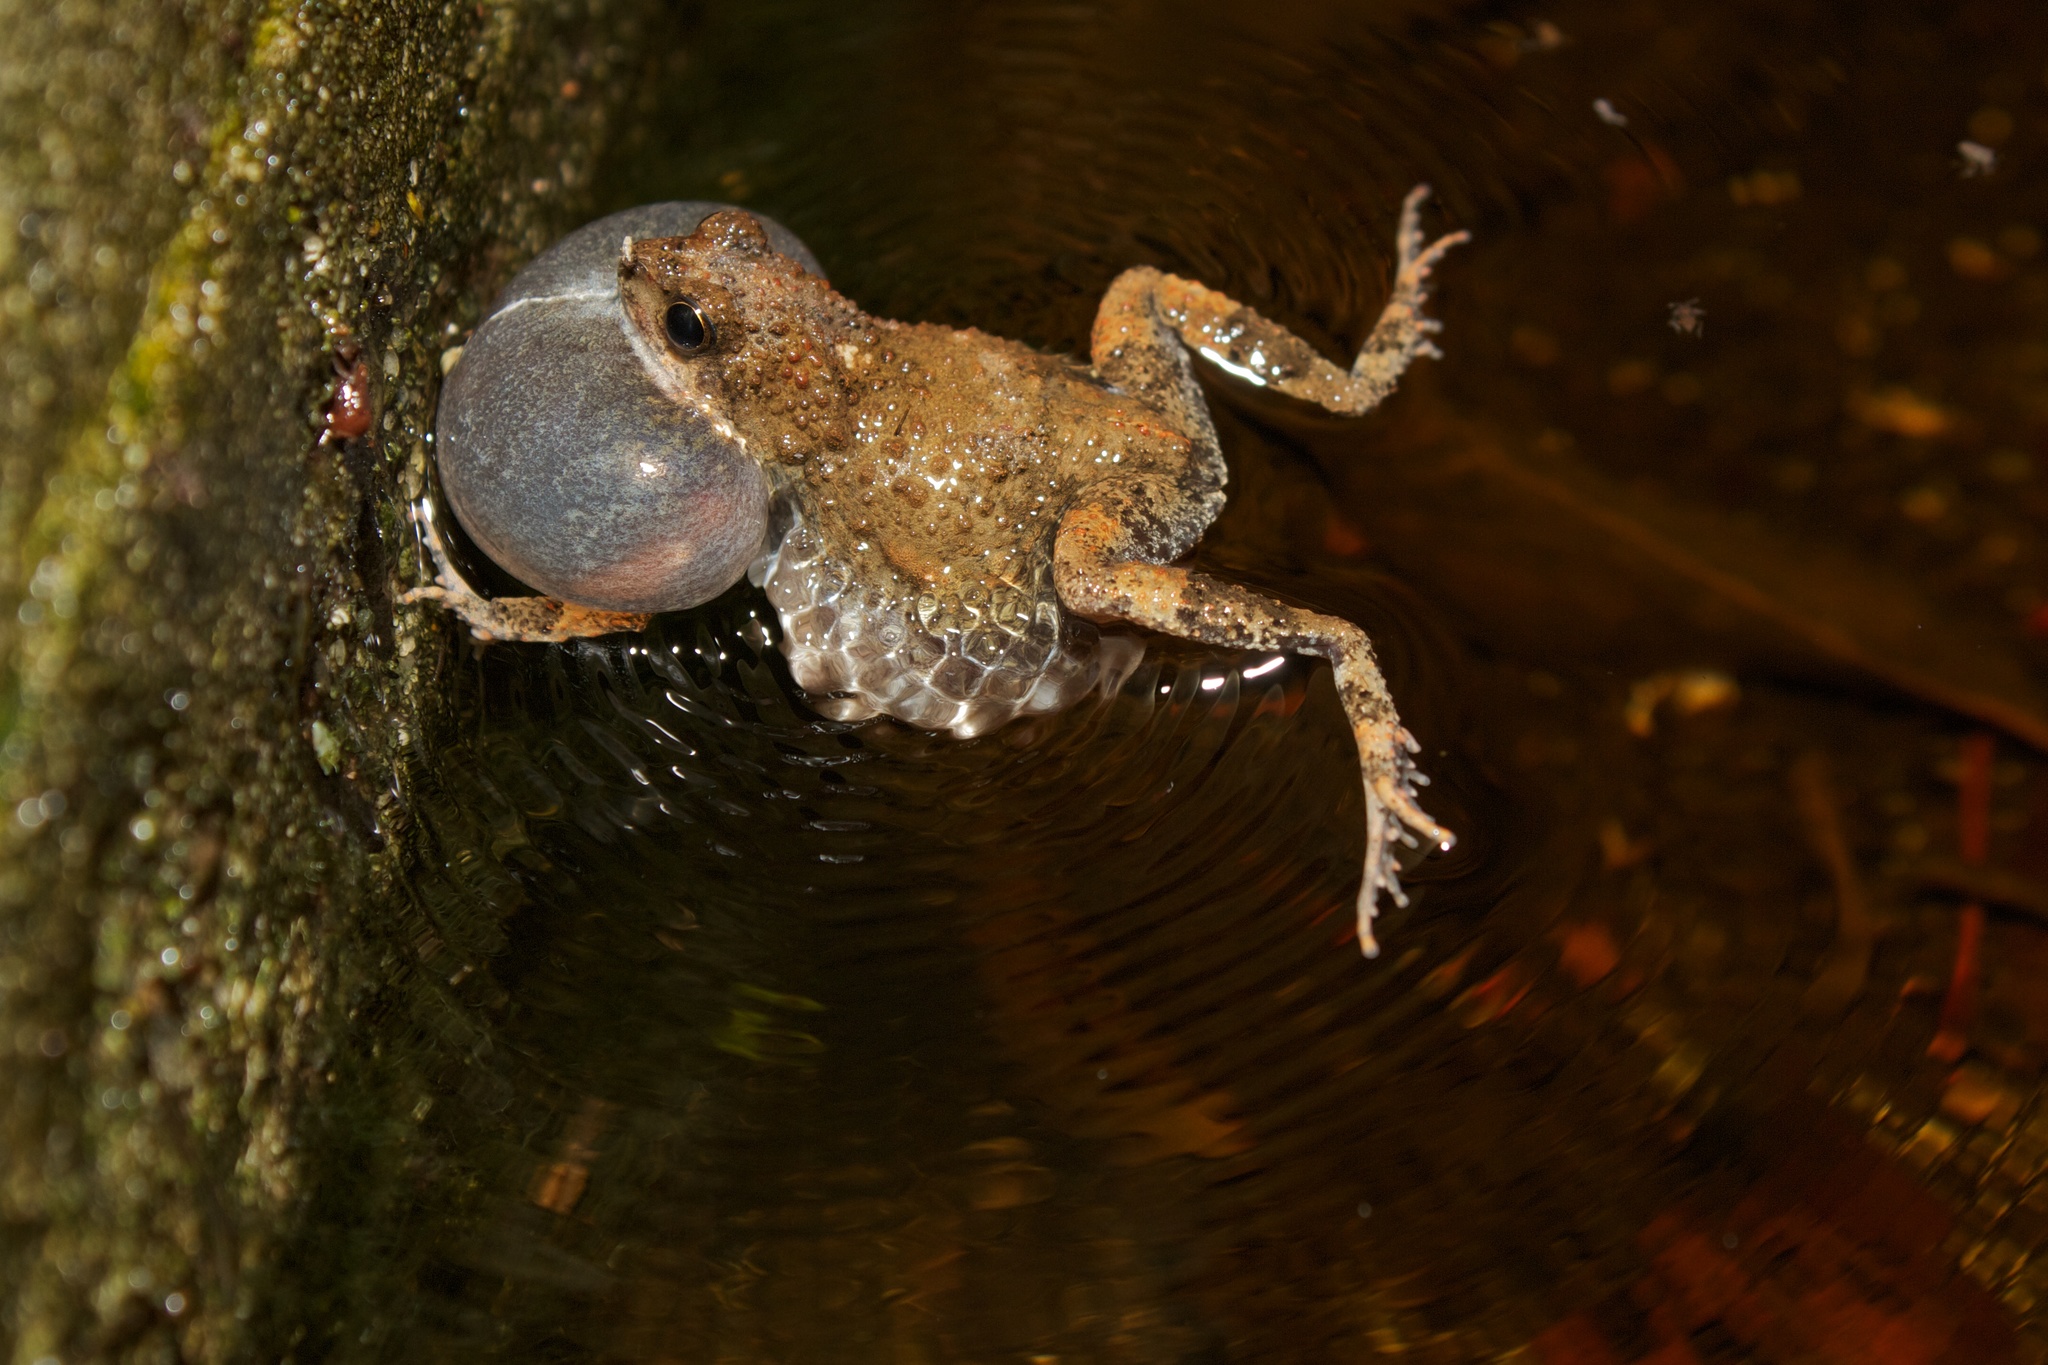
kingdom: Animalia
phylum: Chordata
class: Amphibia
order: Anura
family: Leptodactylidae
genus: Engystomops
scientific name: Engystomops pustulosus
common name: Tungara frog
